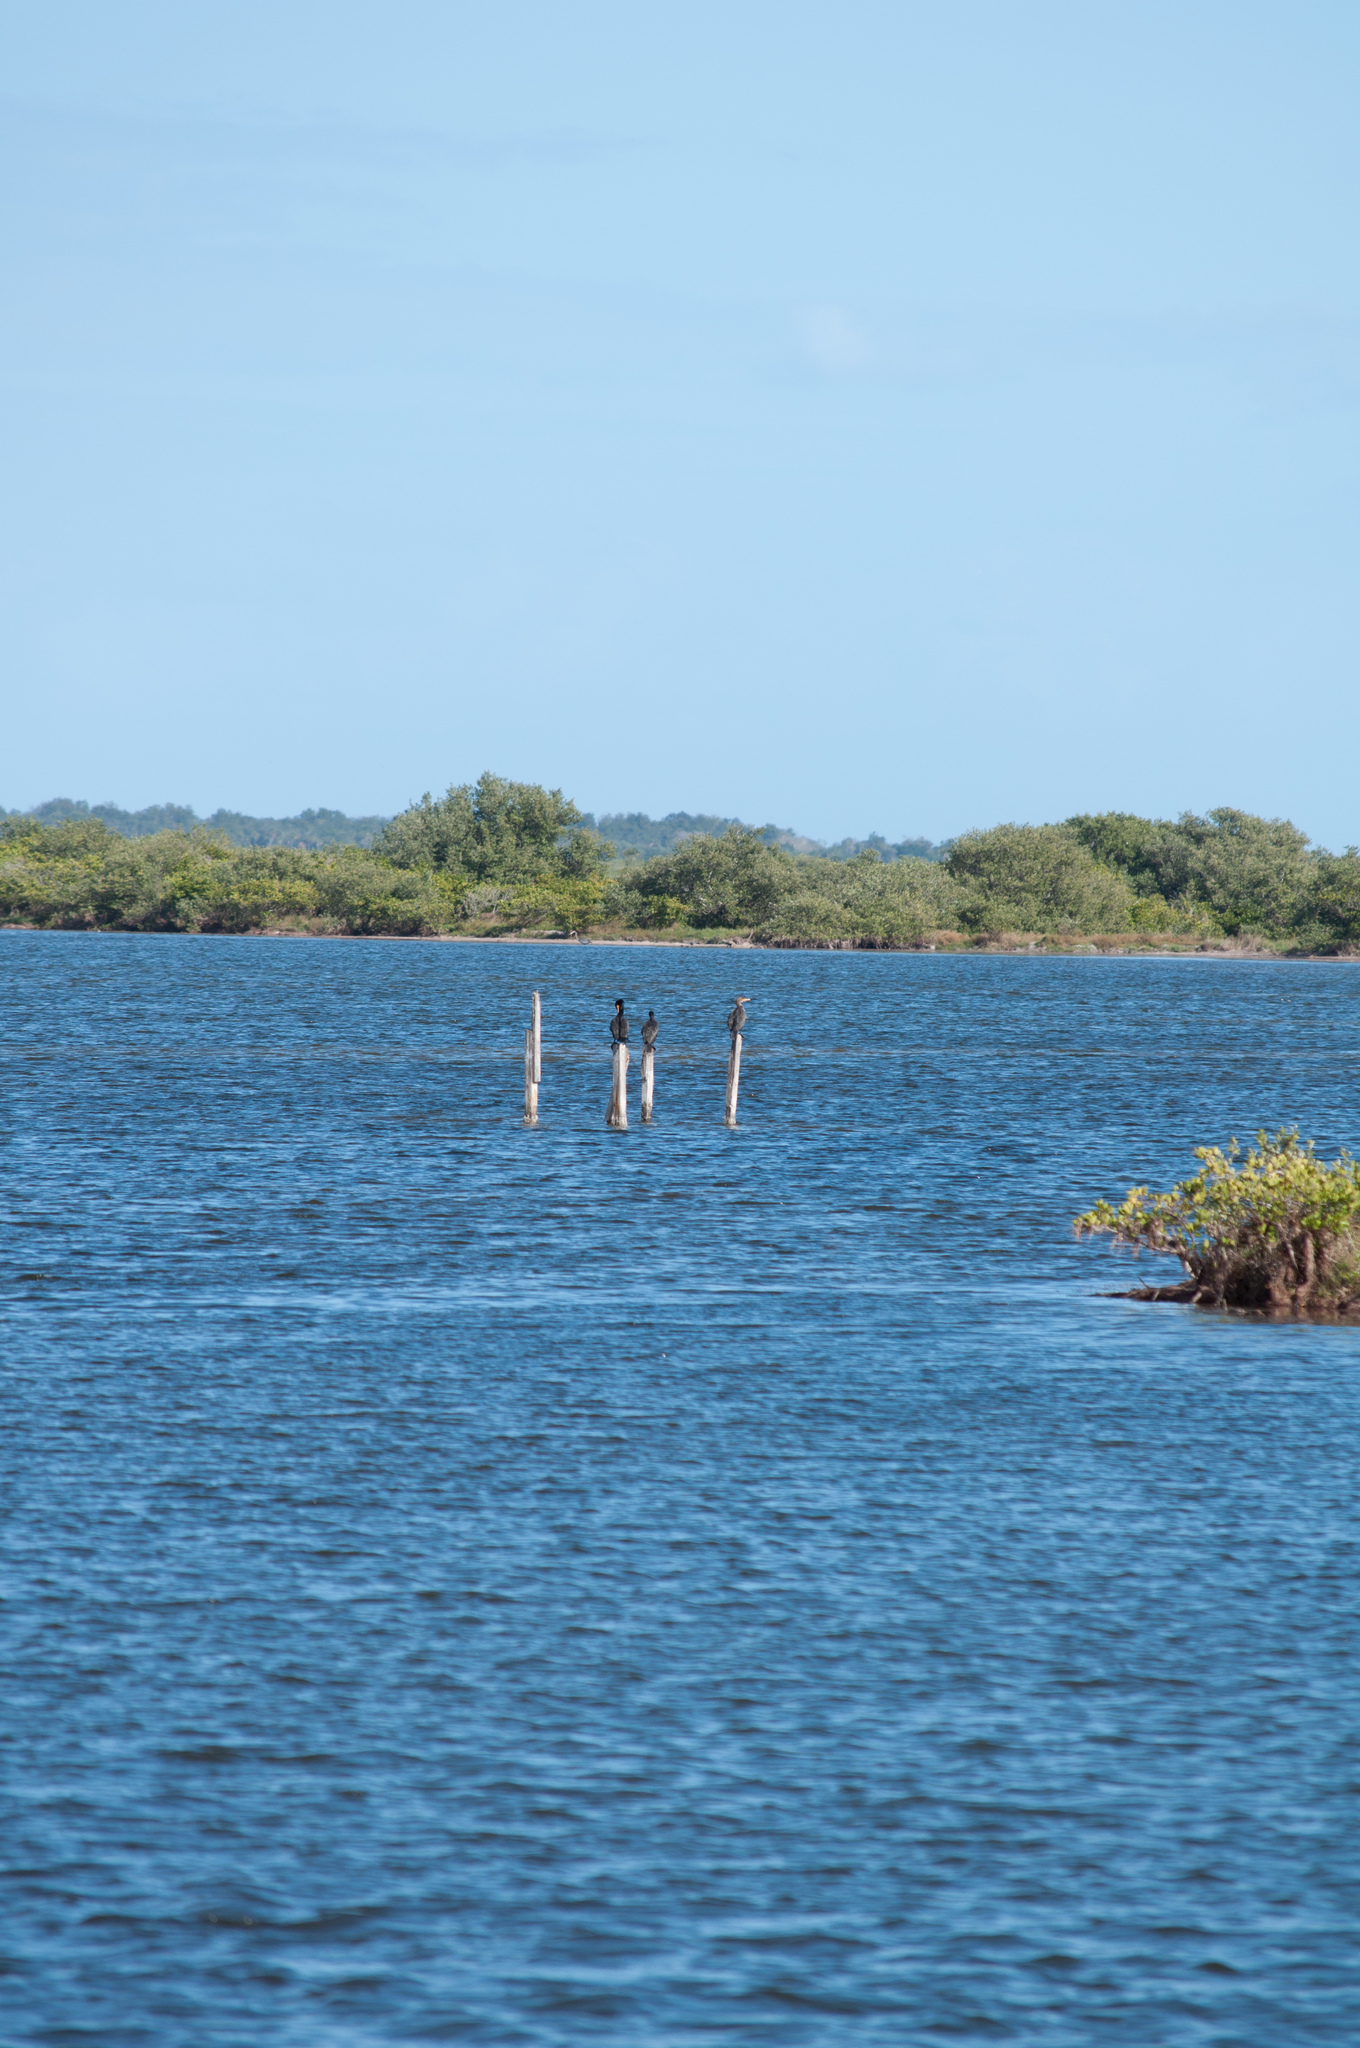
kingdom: Animalia
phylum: Chordata
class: Aves
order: Suliformes
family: Phalacrocoracidae
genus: Phalacrocorax
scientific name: Phalacrocorax auritus
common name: Double-crested cormorant
